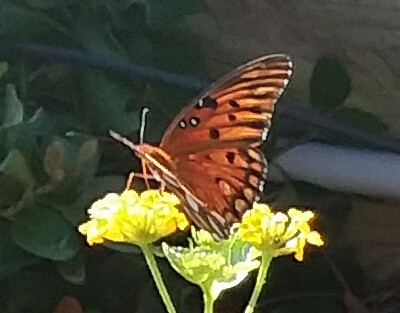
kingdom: Animalia
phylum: Arthropoda
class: Insecta
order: Lepidoptera
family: Nymphalidae
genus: Dione
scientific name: Dione vanillae
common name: Gulf fritillary
